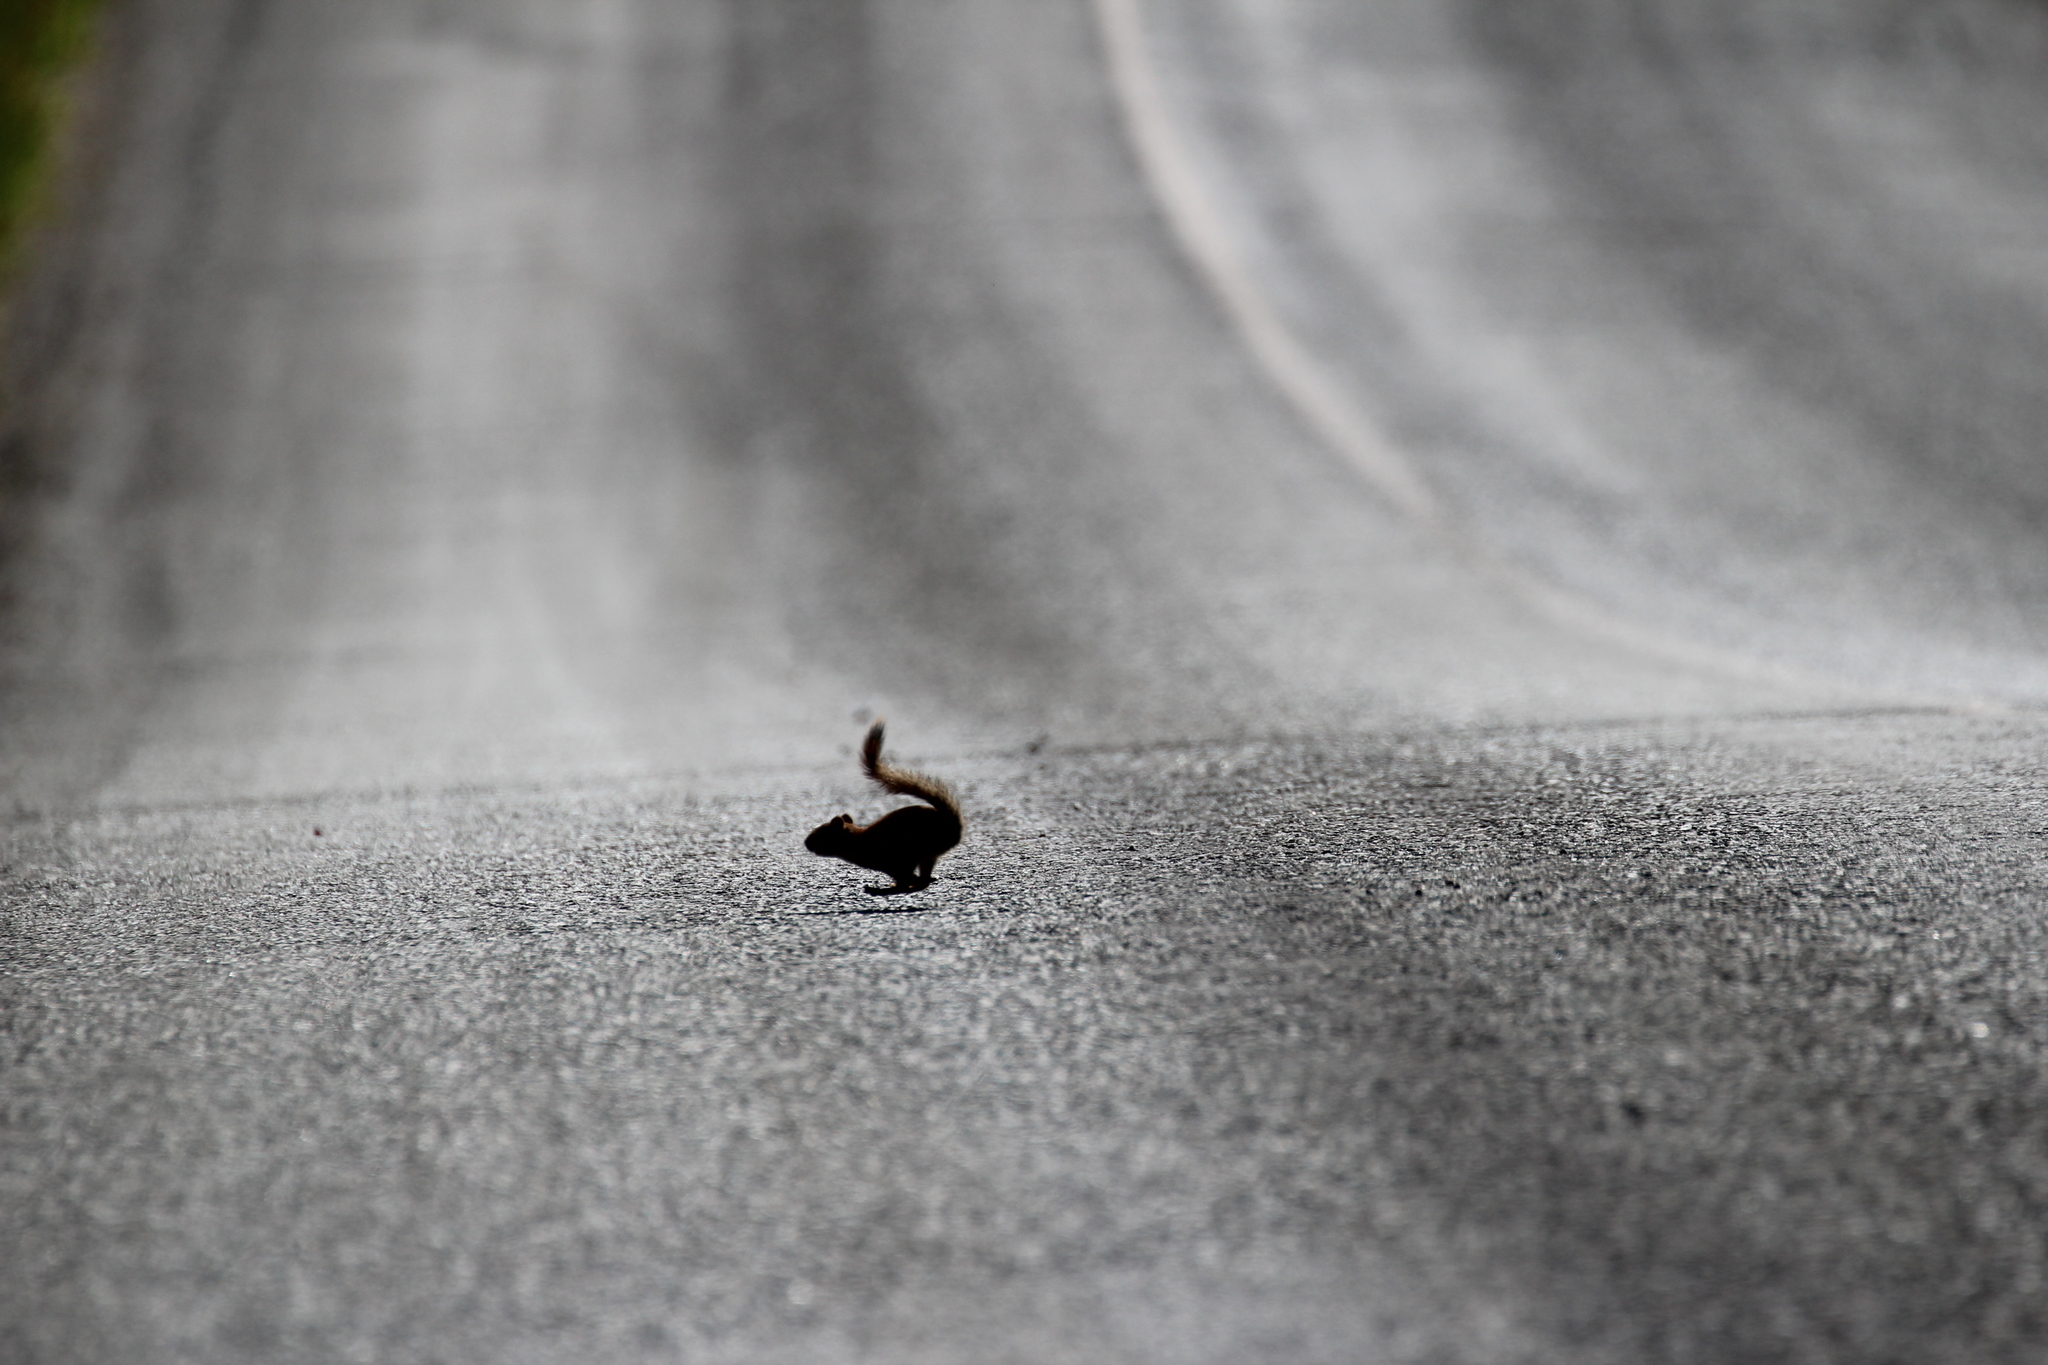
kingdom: Animalia
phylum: Chordata
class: Mammalia
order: Rodentia
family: Sciuridae
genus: Tamiasciurus
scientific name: Tamiasciurus hudsonicus
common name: Red squirrel
